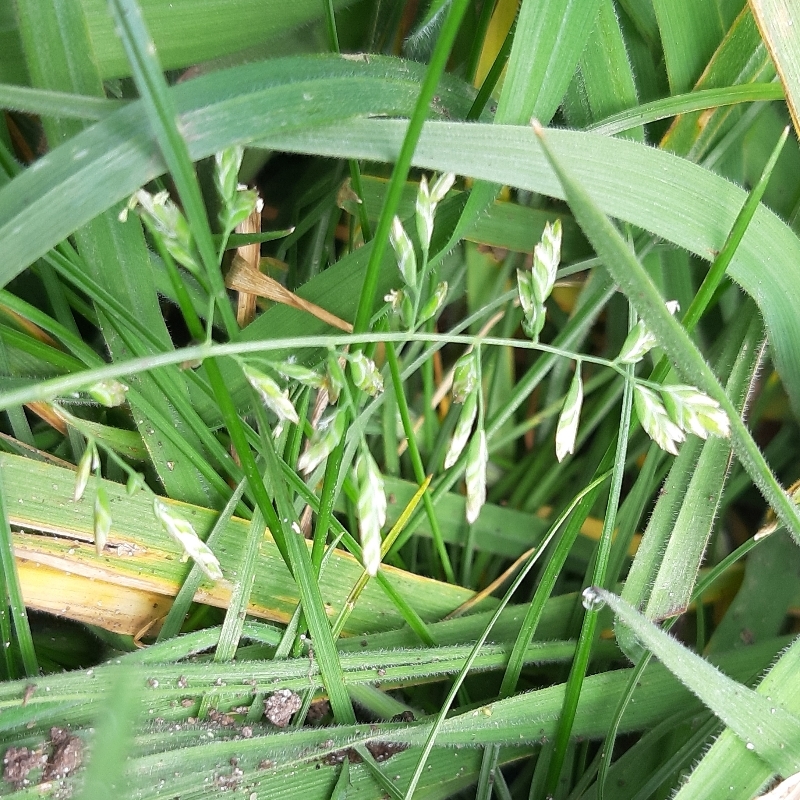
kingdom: Plantae
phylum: Tracheophyta
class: Liliopsida
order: Poales
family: Poaceae
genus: Poa
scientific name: Poa annua
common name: Annual bluegrass
